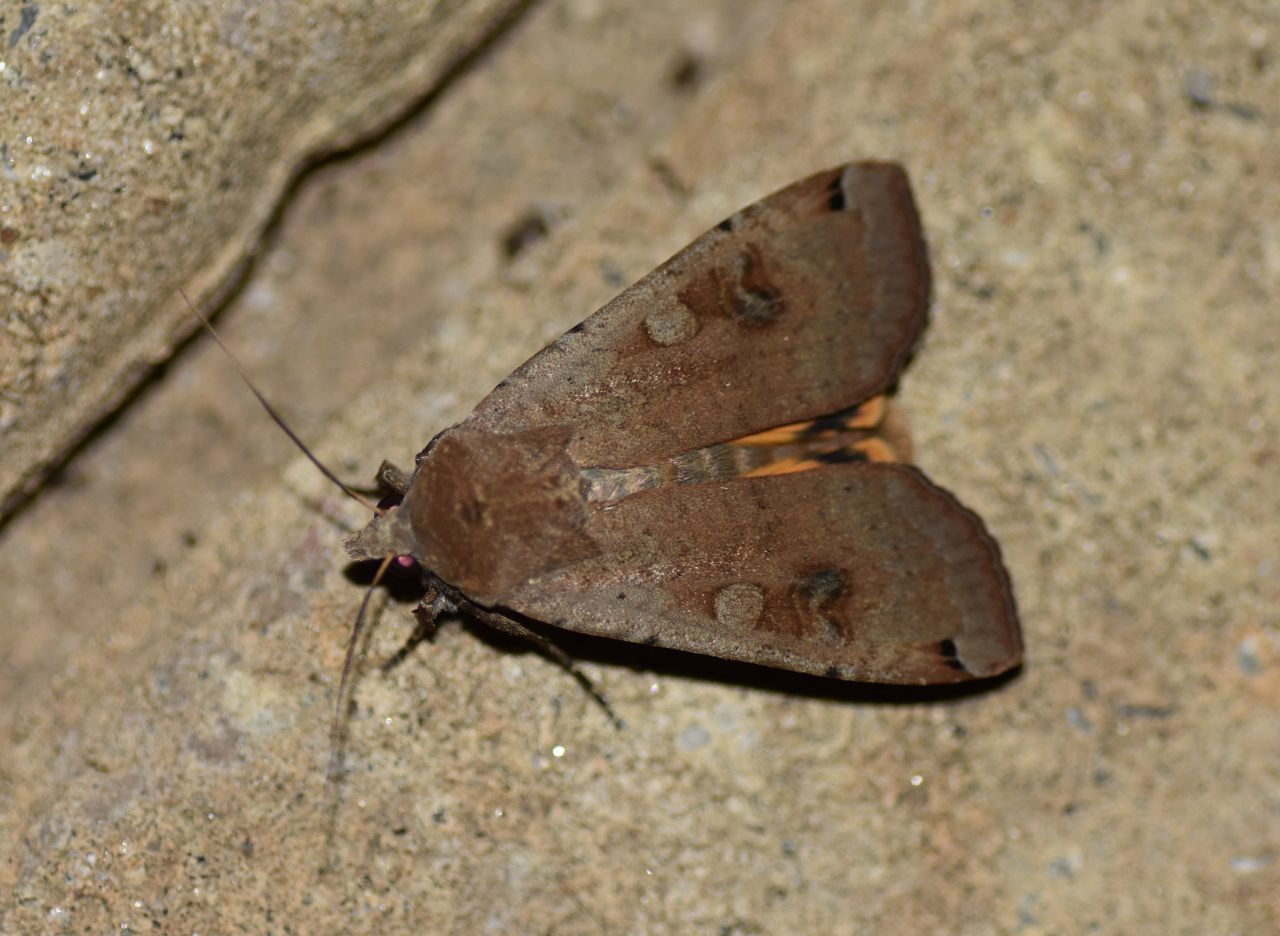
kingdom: Animalia
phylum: Arthropoda
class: Insecta
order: Lepidoptera
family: Noctuidae
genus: Noctua
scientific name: Noctua pronuba
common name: Large yellow underwing
